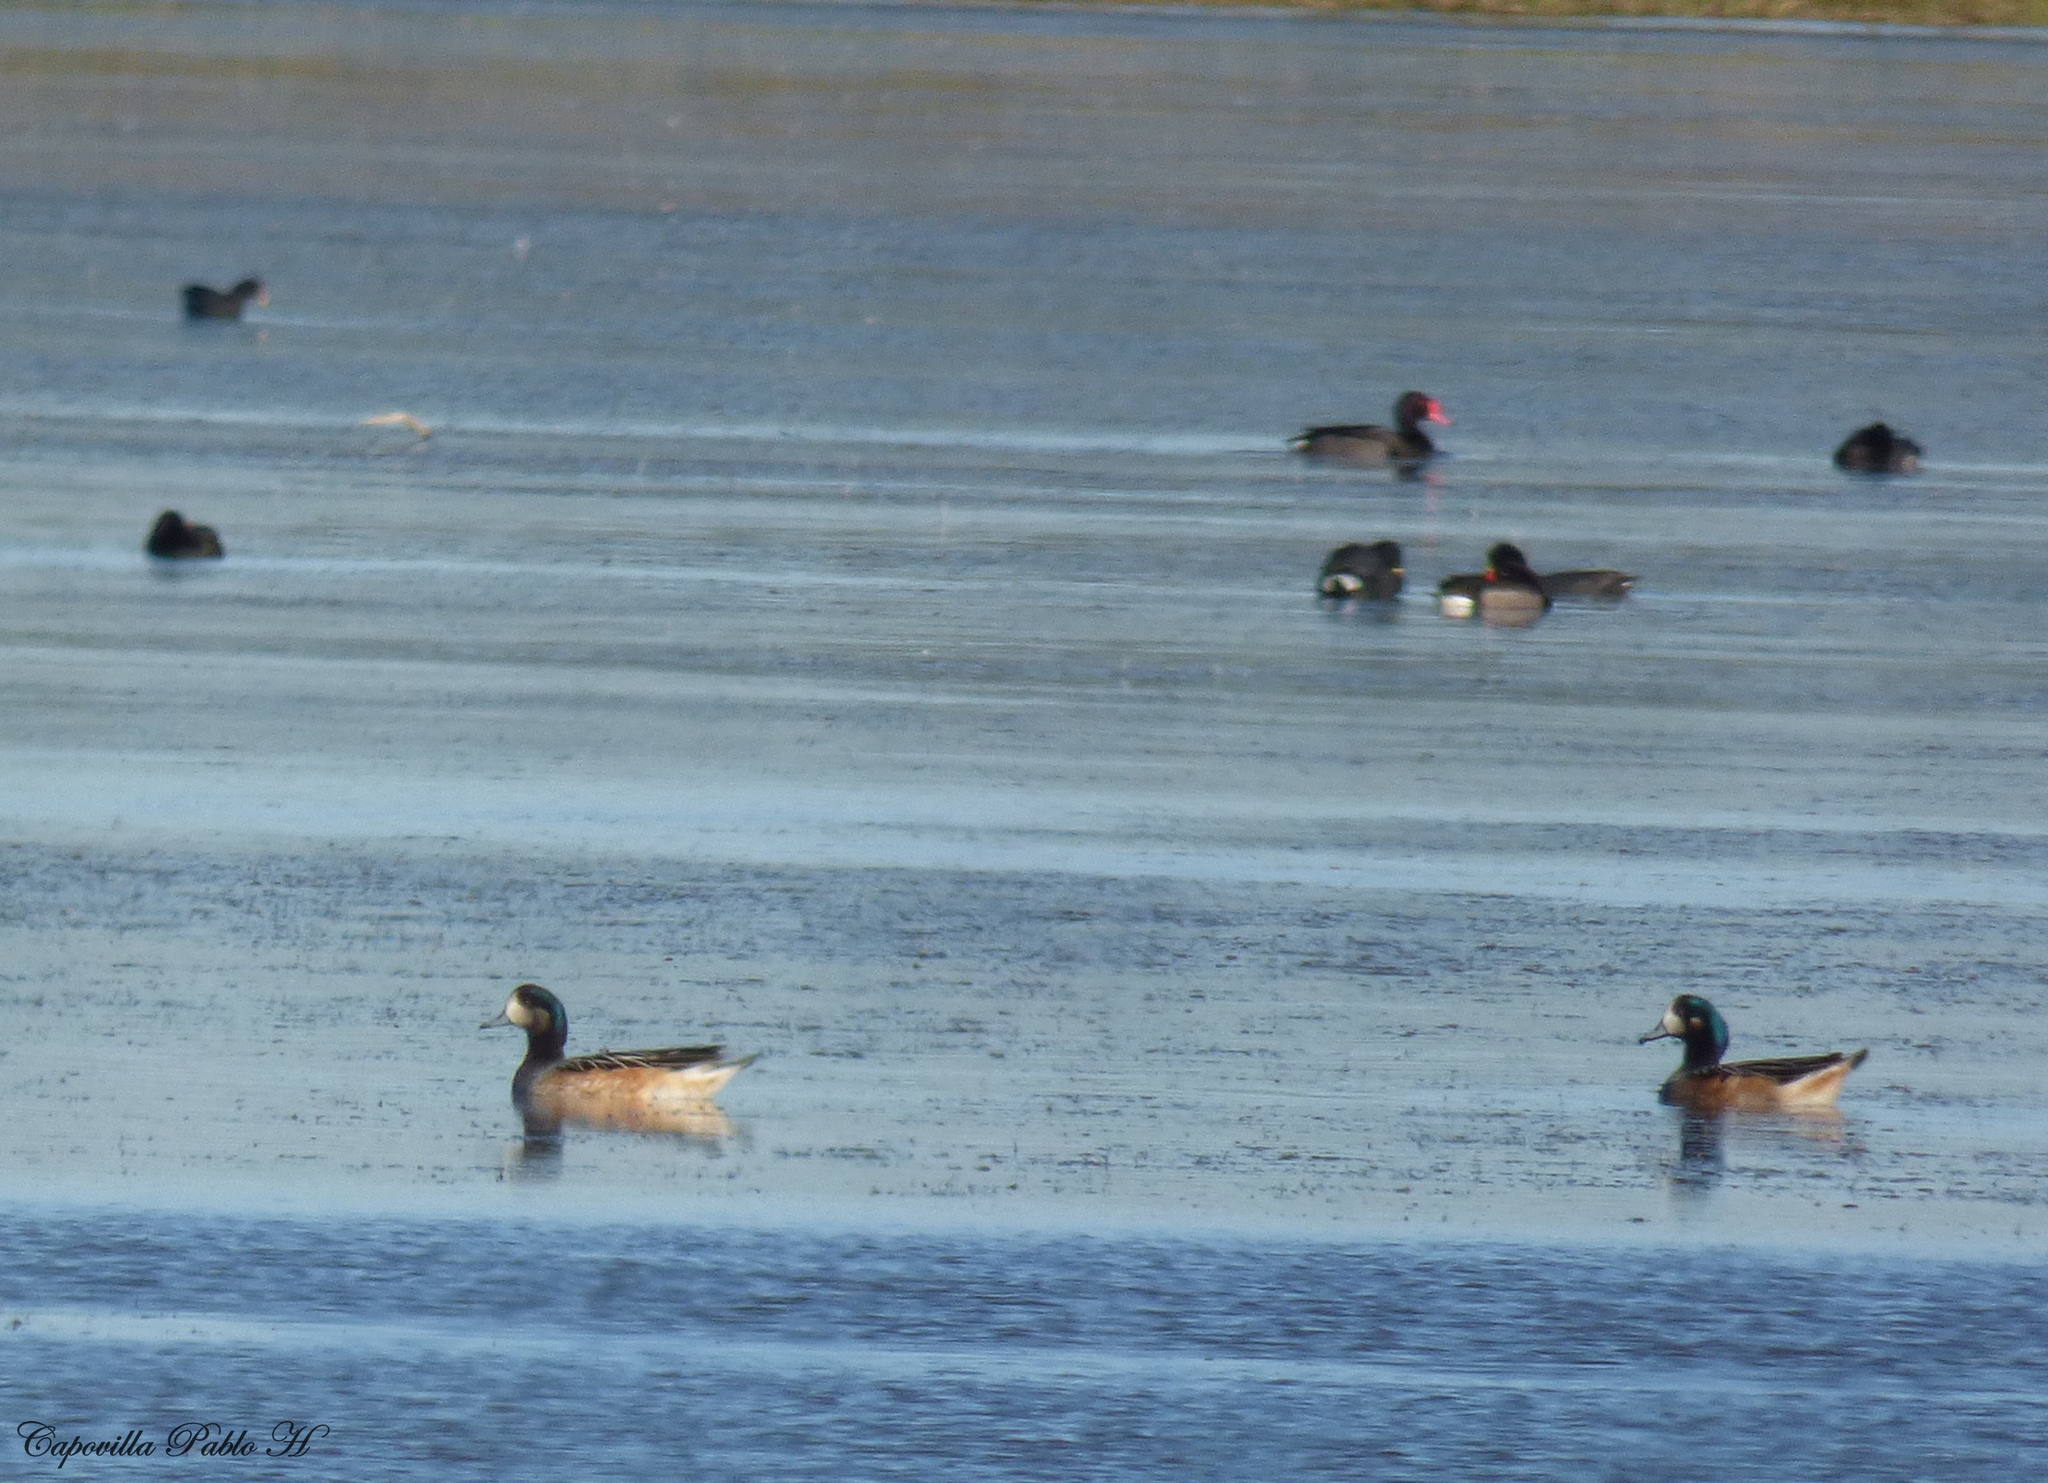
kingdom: Animalia
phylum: Chordata
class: Aves
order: Anseriformes
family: Anatidae
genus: Mareca
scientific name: Mareca sibilatrix
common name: Chiloe wigeon
